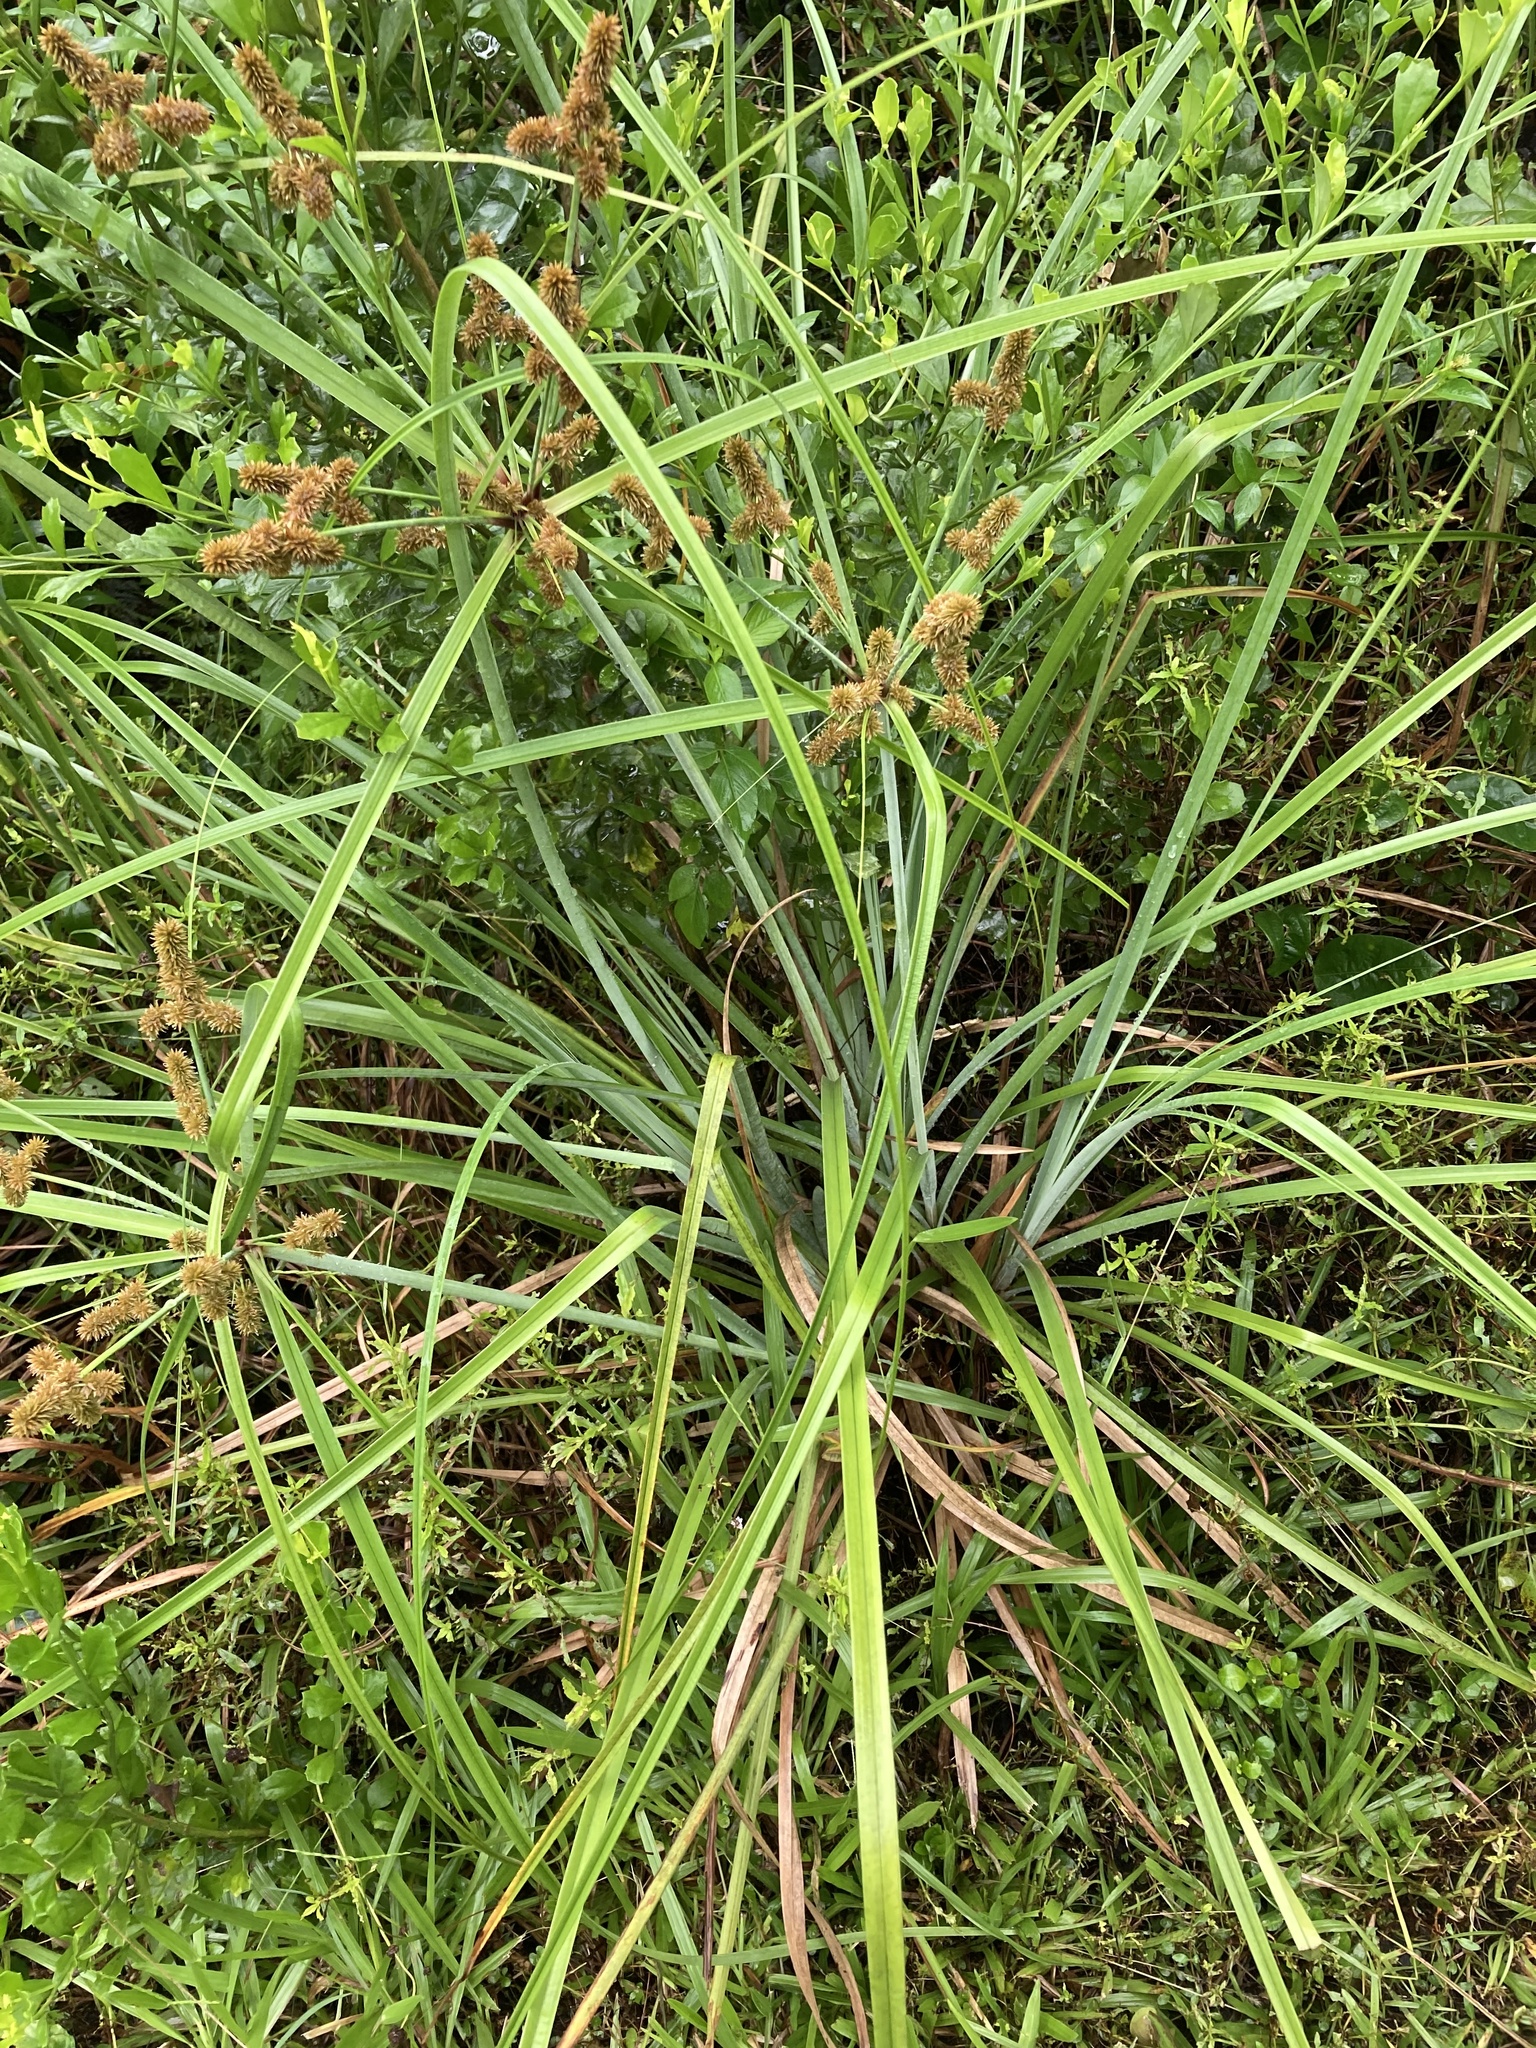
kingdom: Plantae
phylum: Tracheophyta
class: Liliopsida
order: Poales
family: Cyperaceae
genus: Cyperus
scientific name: Cyperus ligularis
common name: Swamp flat sedge
